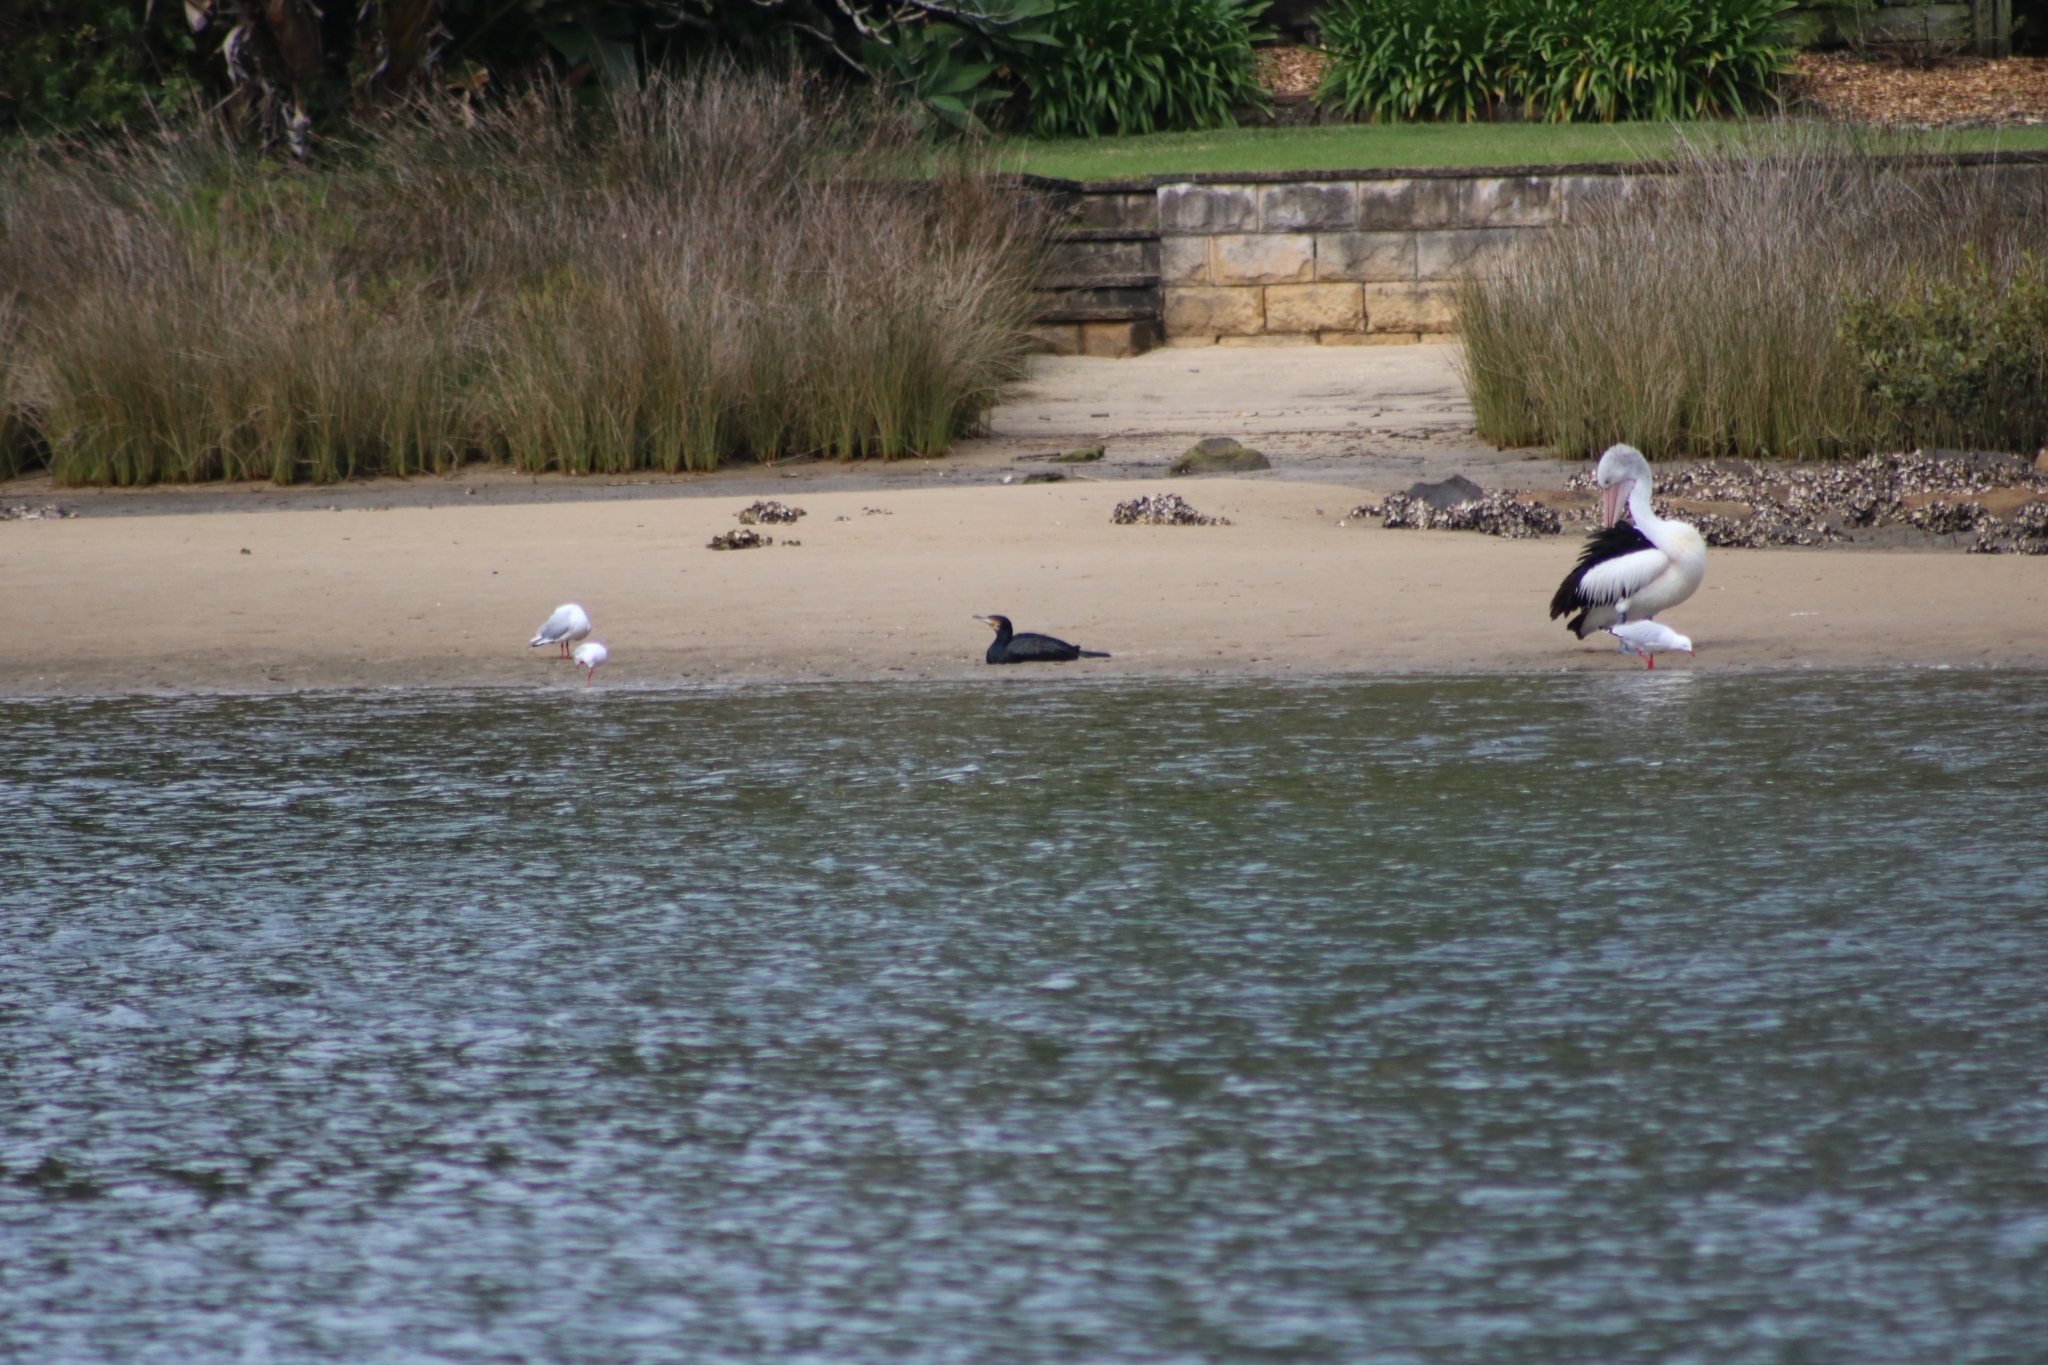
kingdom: Animalia
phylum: Chordata
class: Aves
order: Suliformes
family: Phalacrocoracidae
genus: Phalacrocorax
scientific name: Phalacrocorax carbo
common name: Great cormorant
